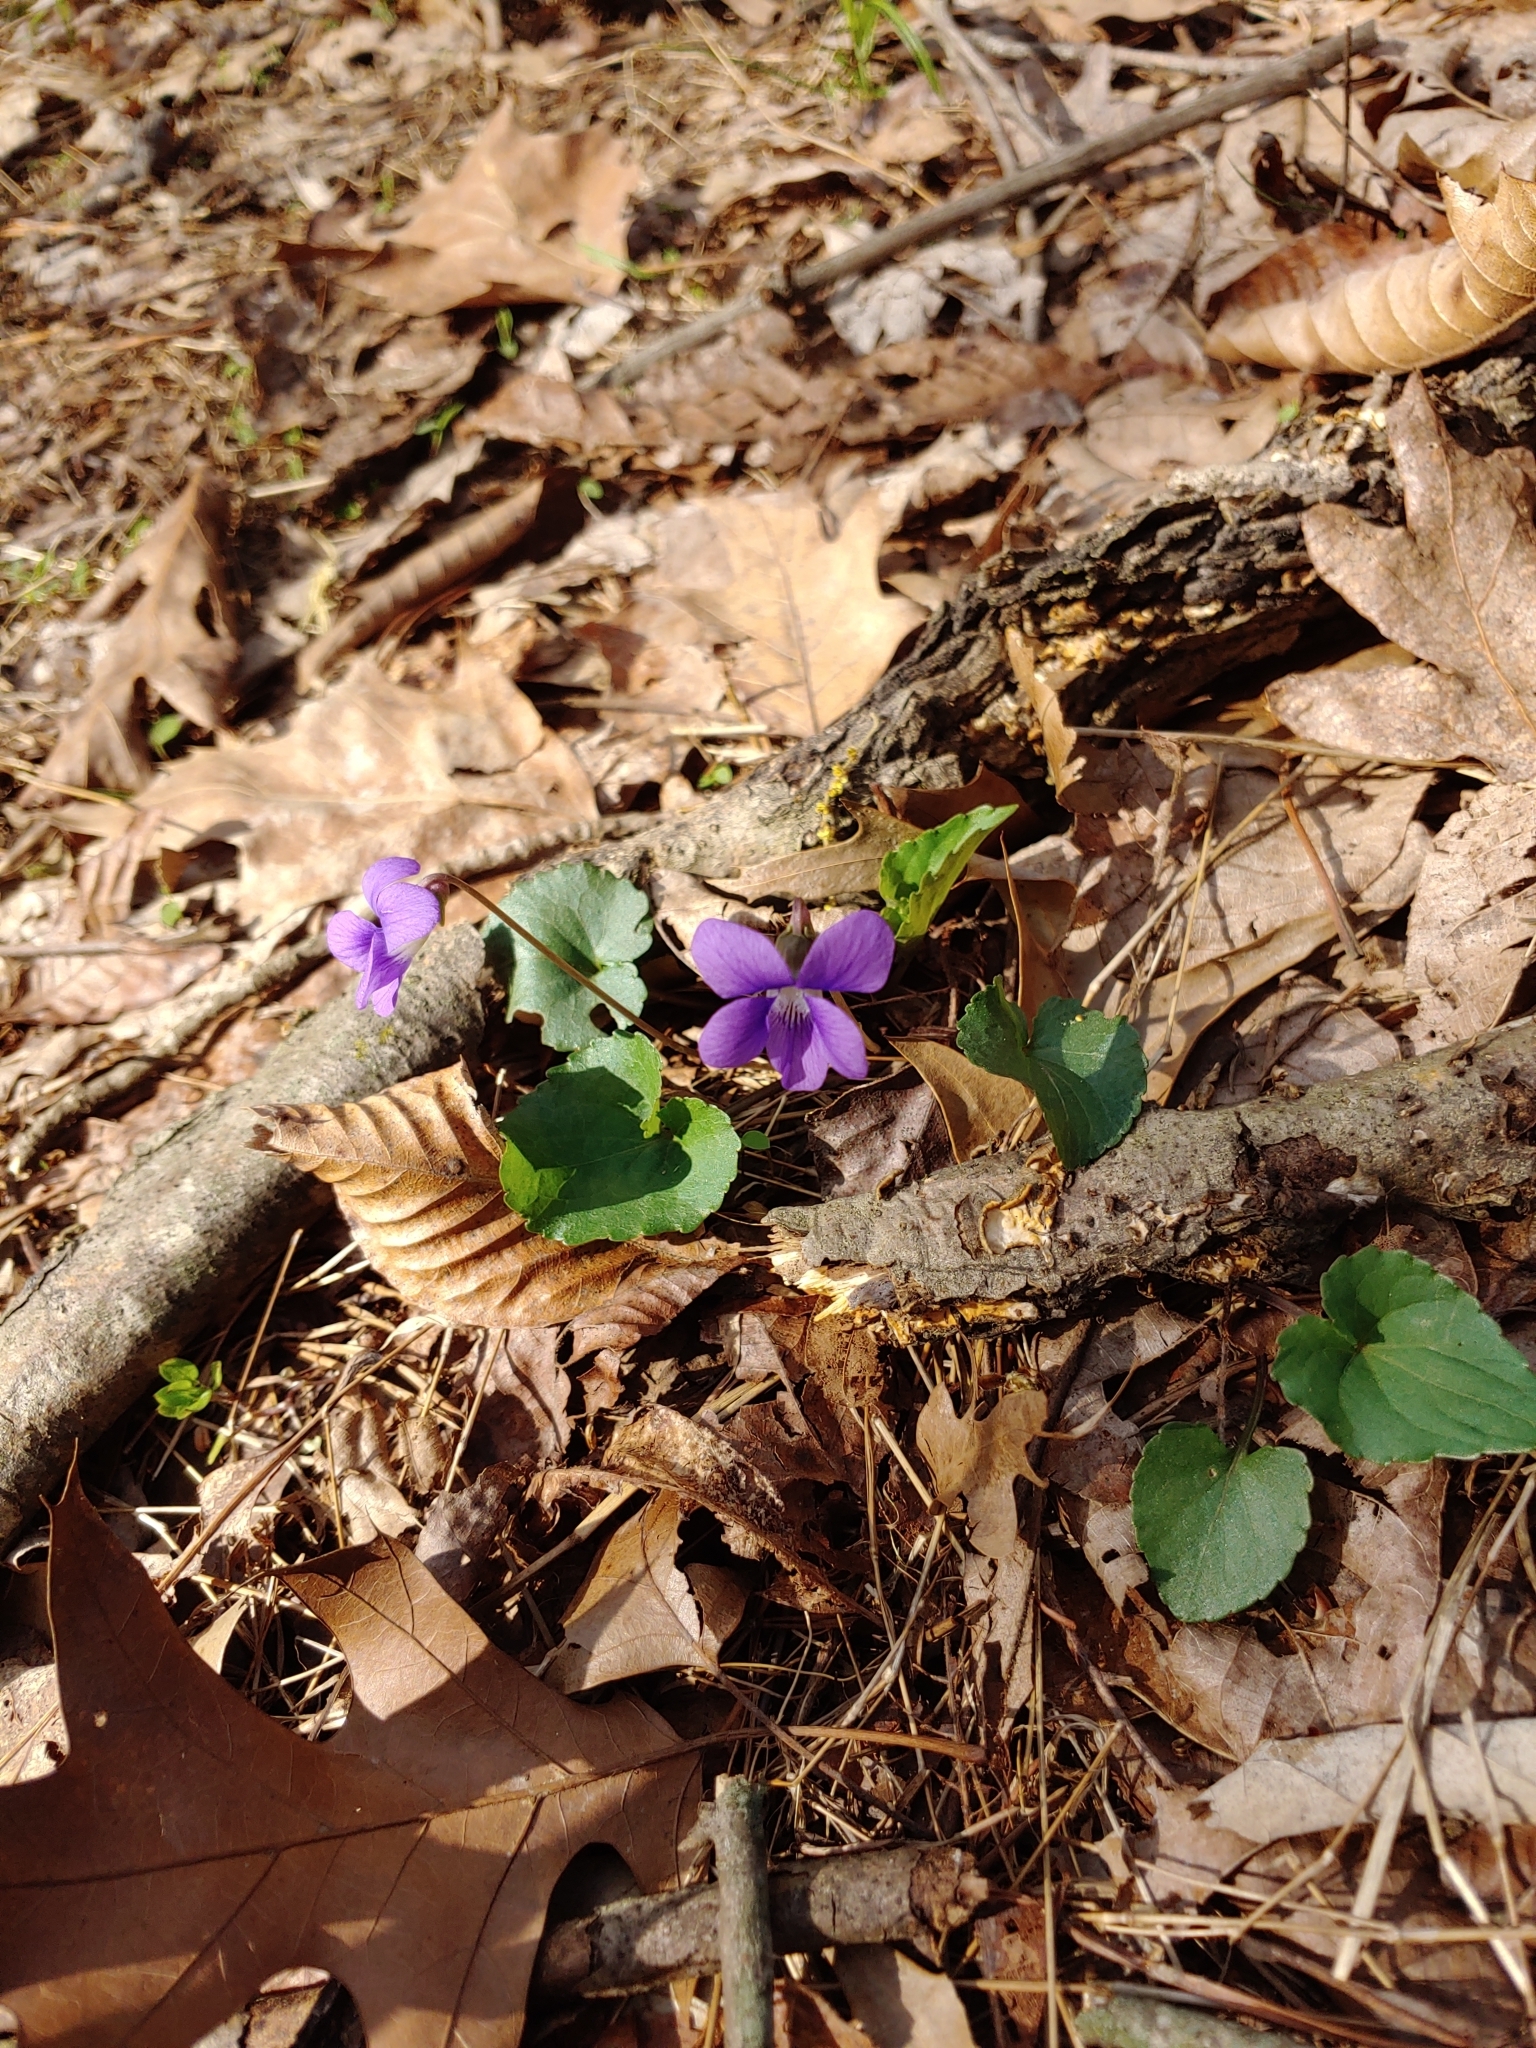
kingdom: Plantae
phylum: Tracheophyta
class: Magnoliopsida
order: Malpighiales
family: Violaceae
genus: Viola
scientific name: Viola sororia
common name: Dooryard violet
